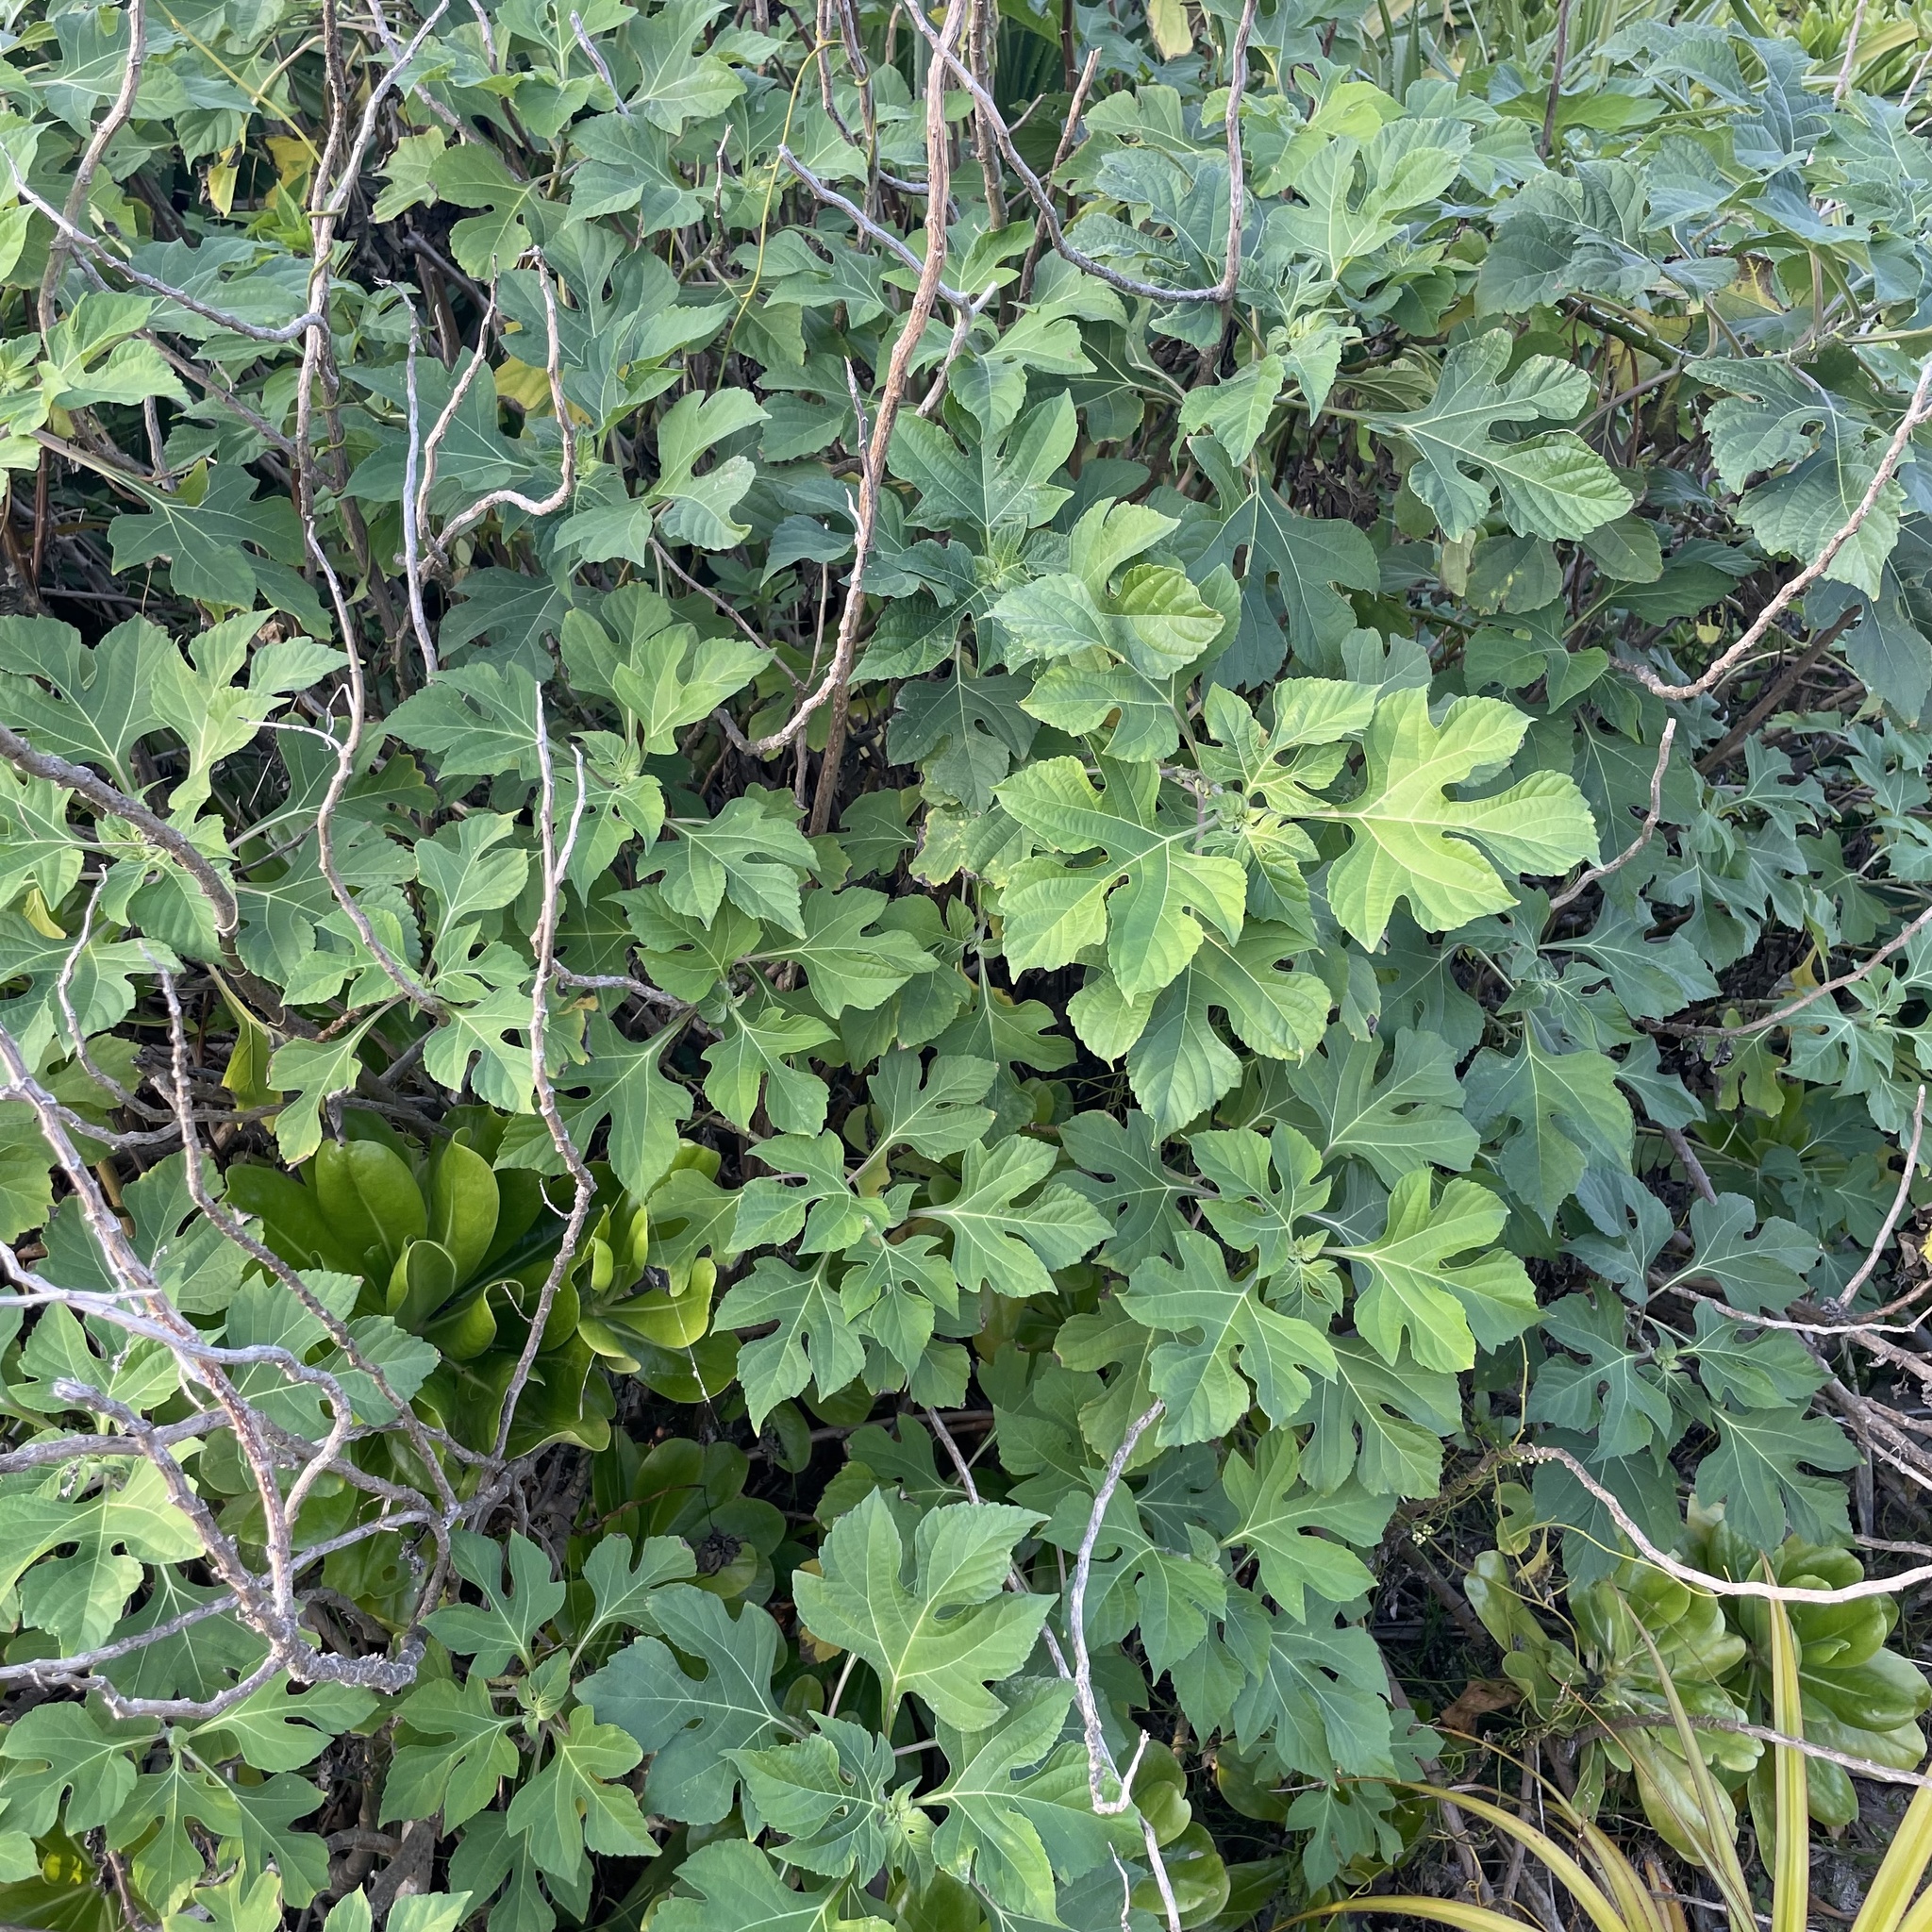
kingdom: Plantae
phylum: Tracheophyta
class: Magnoliopsida
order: Asterales
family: Asteraceae
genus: Tithonia
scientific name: Tithonia diversifolia
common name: Tree marigold
